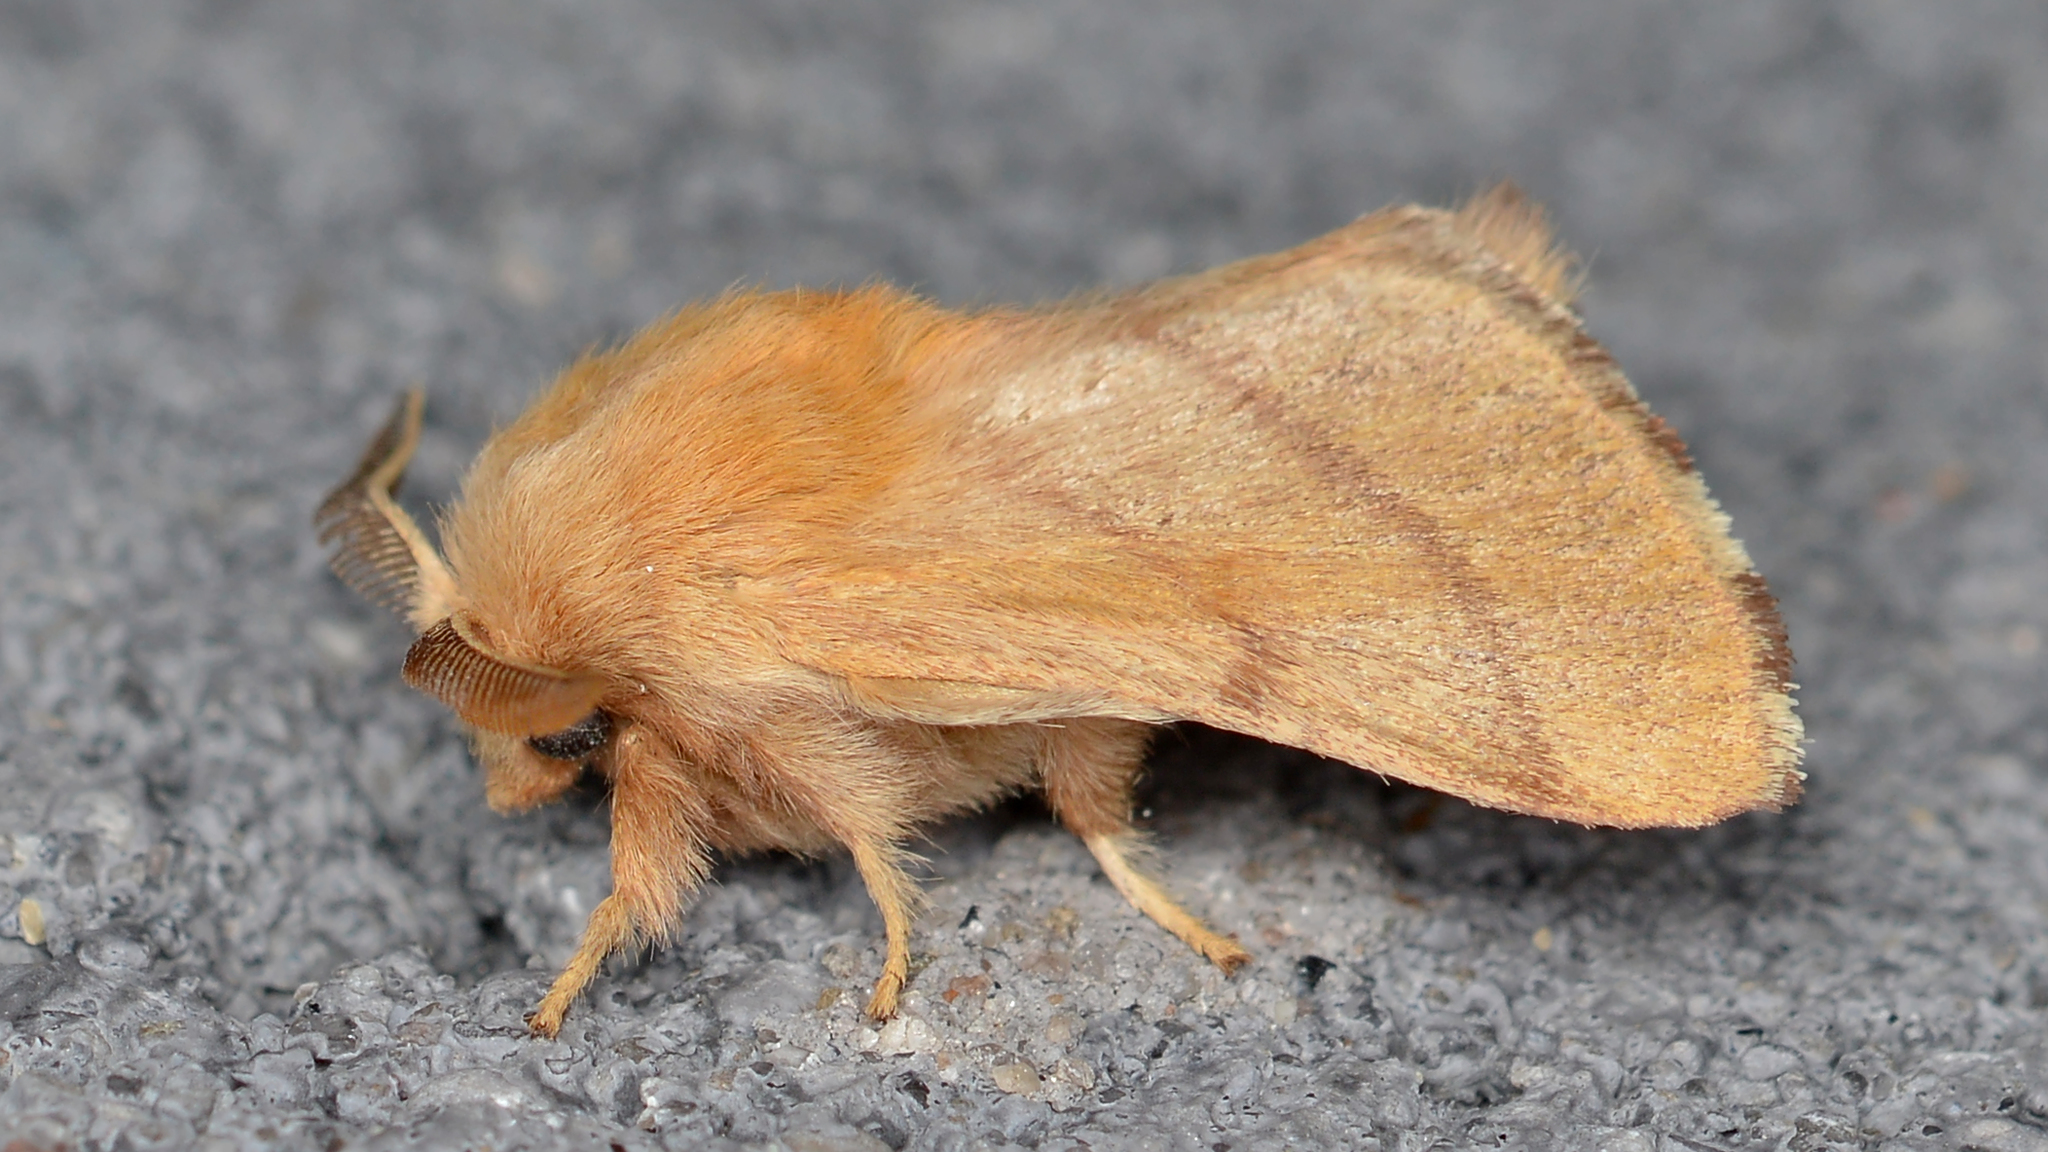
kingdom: Animalia
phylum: Arthropoda
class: Insecta
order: Lepidoptera
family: Lasiocampidae
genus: Malacosoma
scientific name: Malacosoma disstria
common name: Forest tent caterpillar
